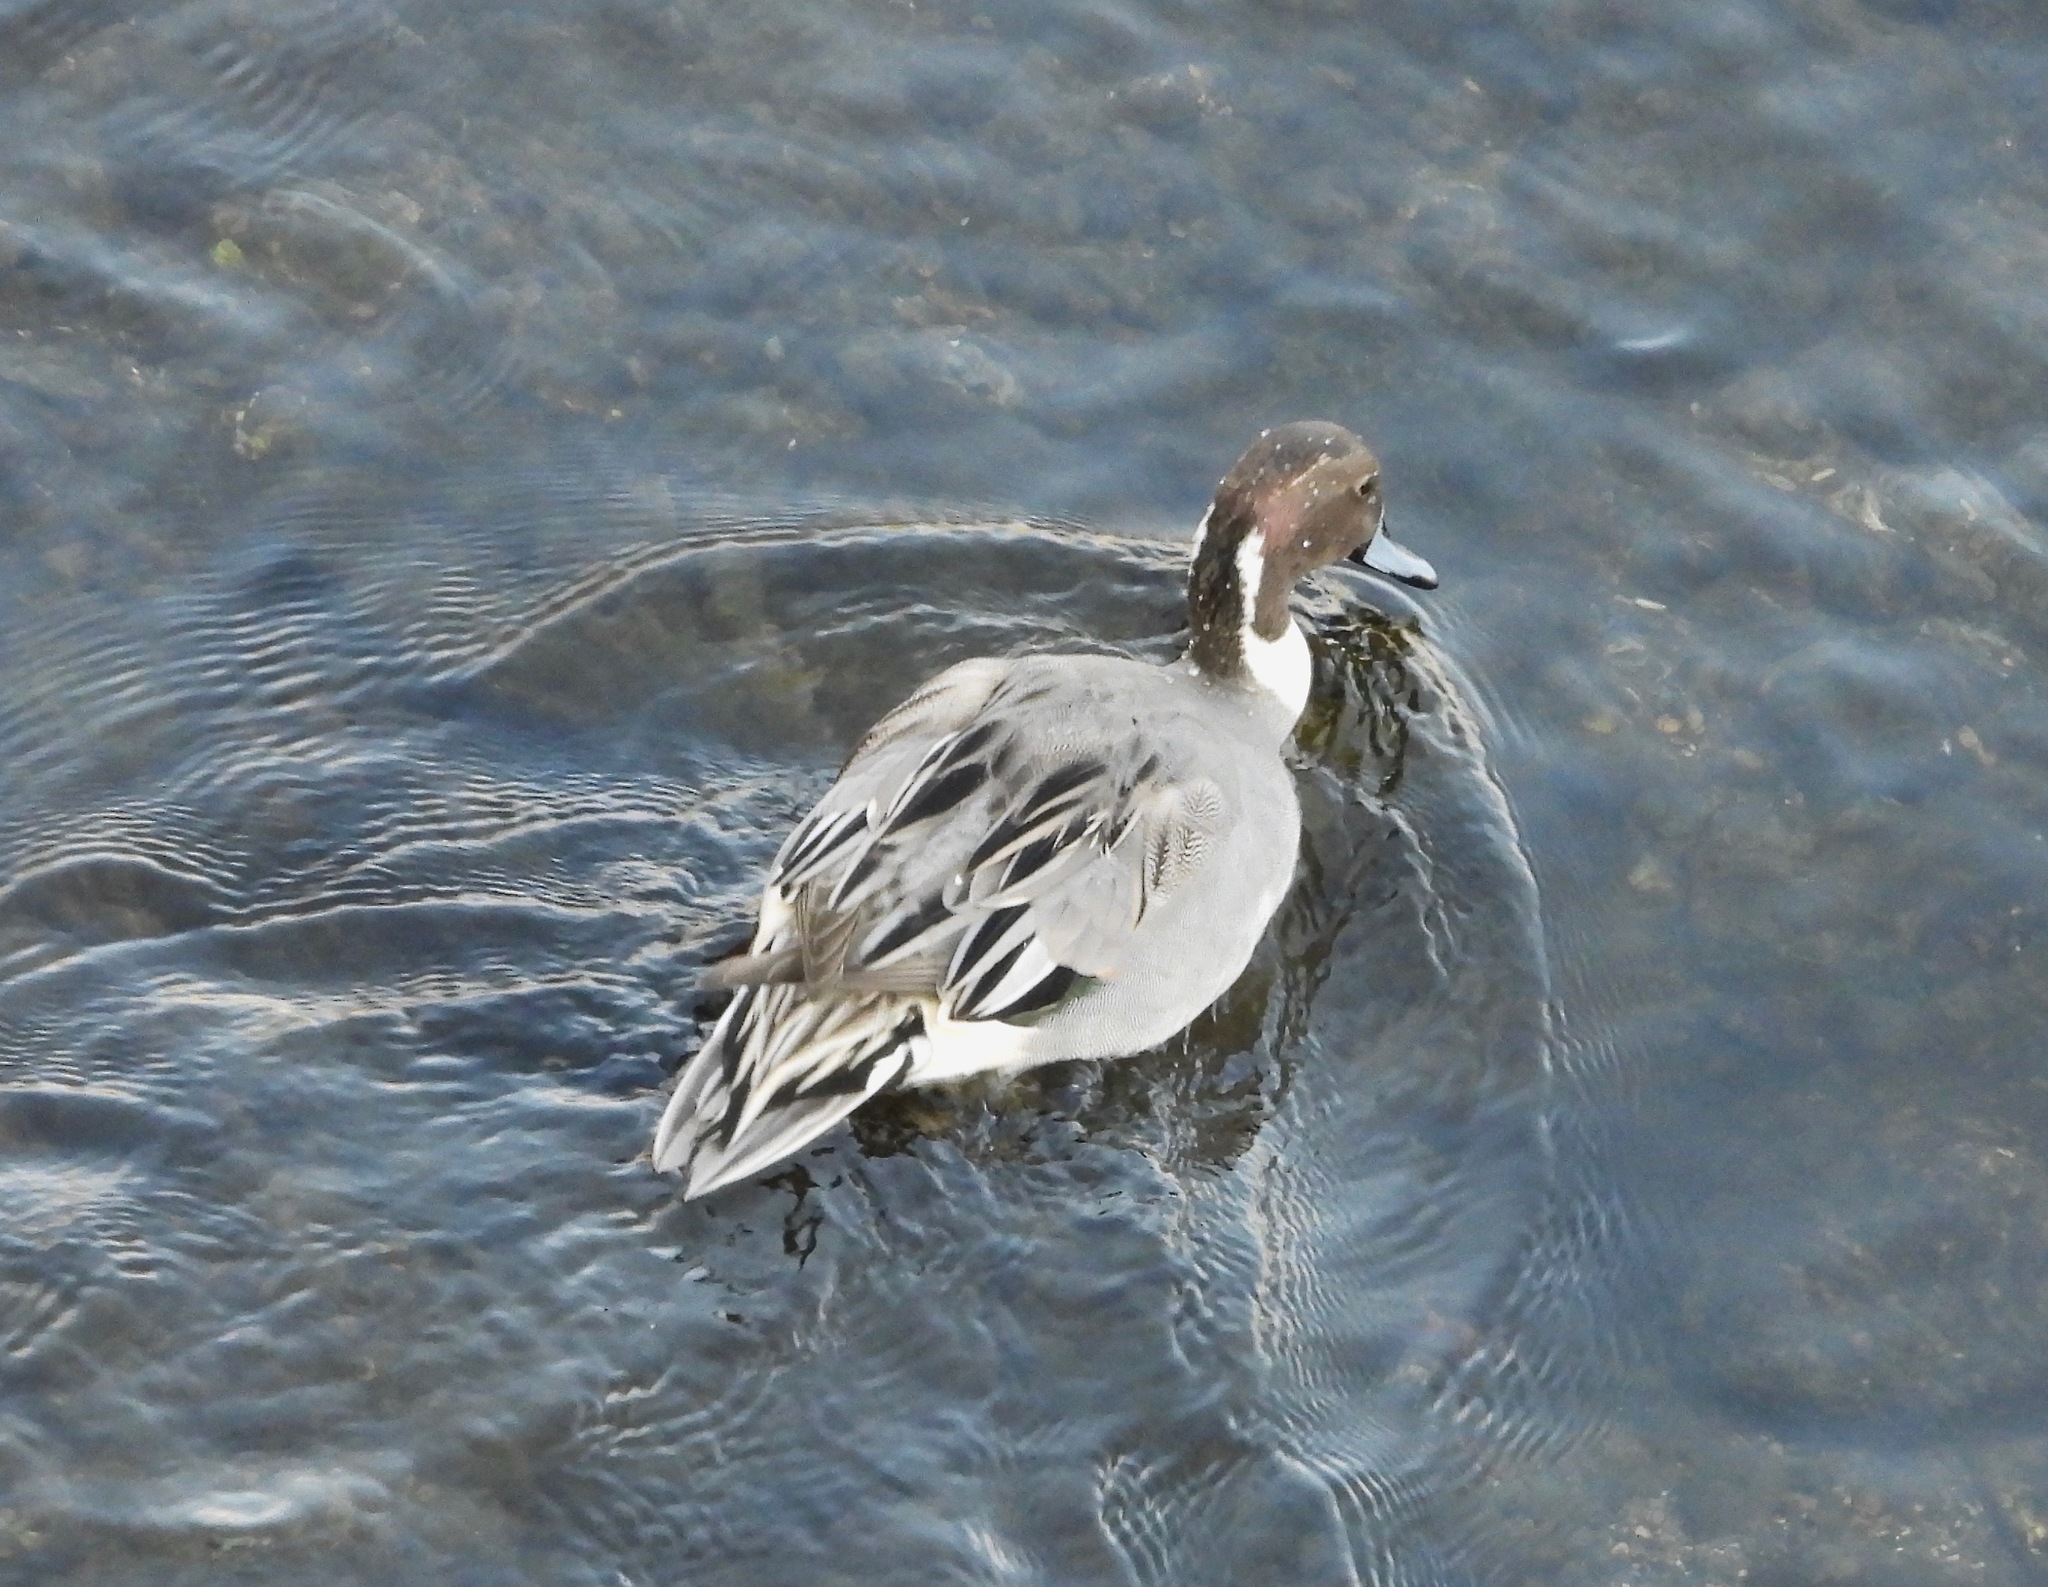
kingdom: Animalia
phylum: Chordata
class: Aves
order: Anseriformes
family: Anatidae
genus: Anas
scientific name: Anas acuta
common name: Northern pintail
